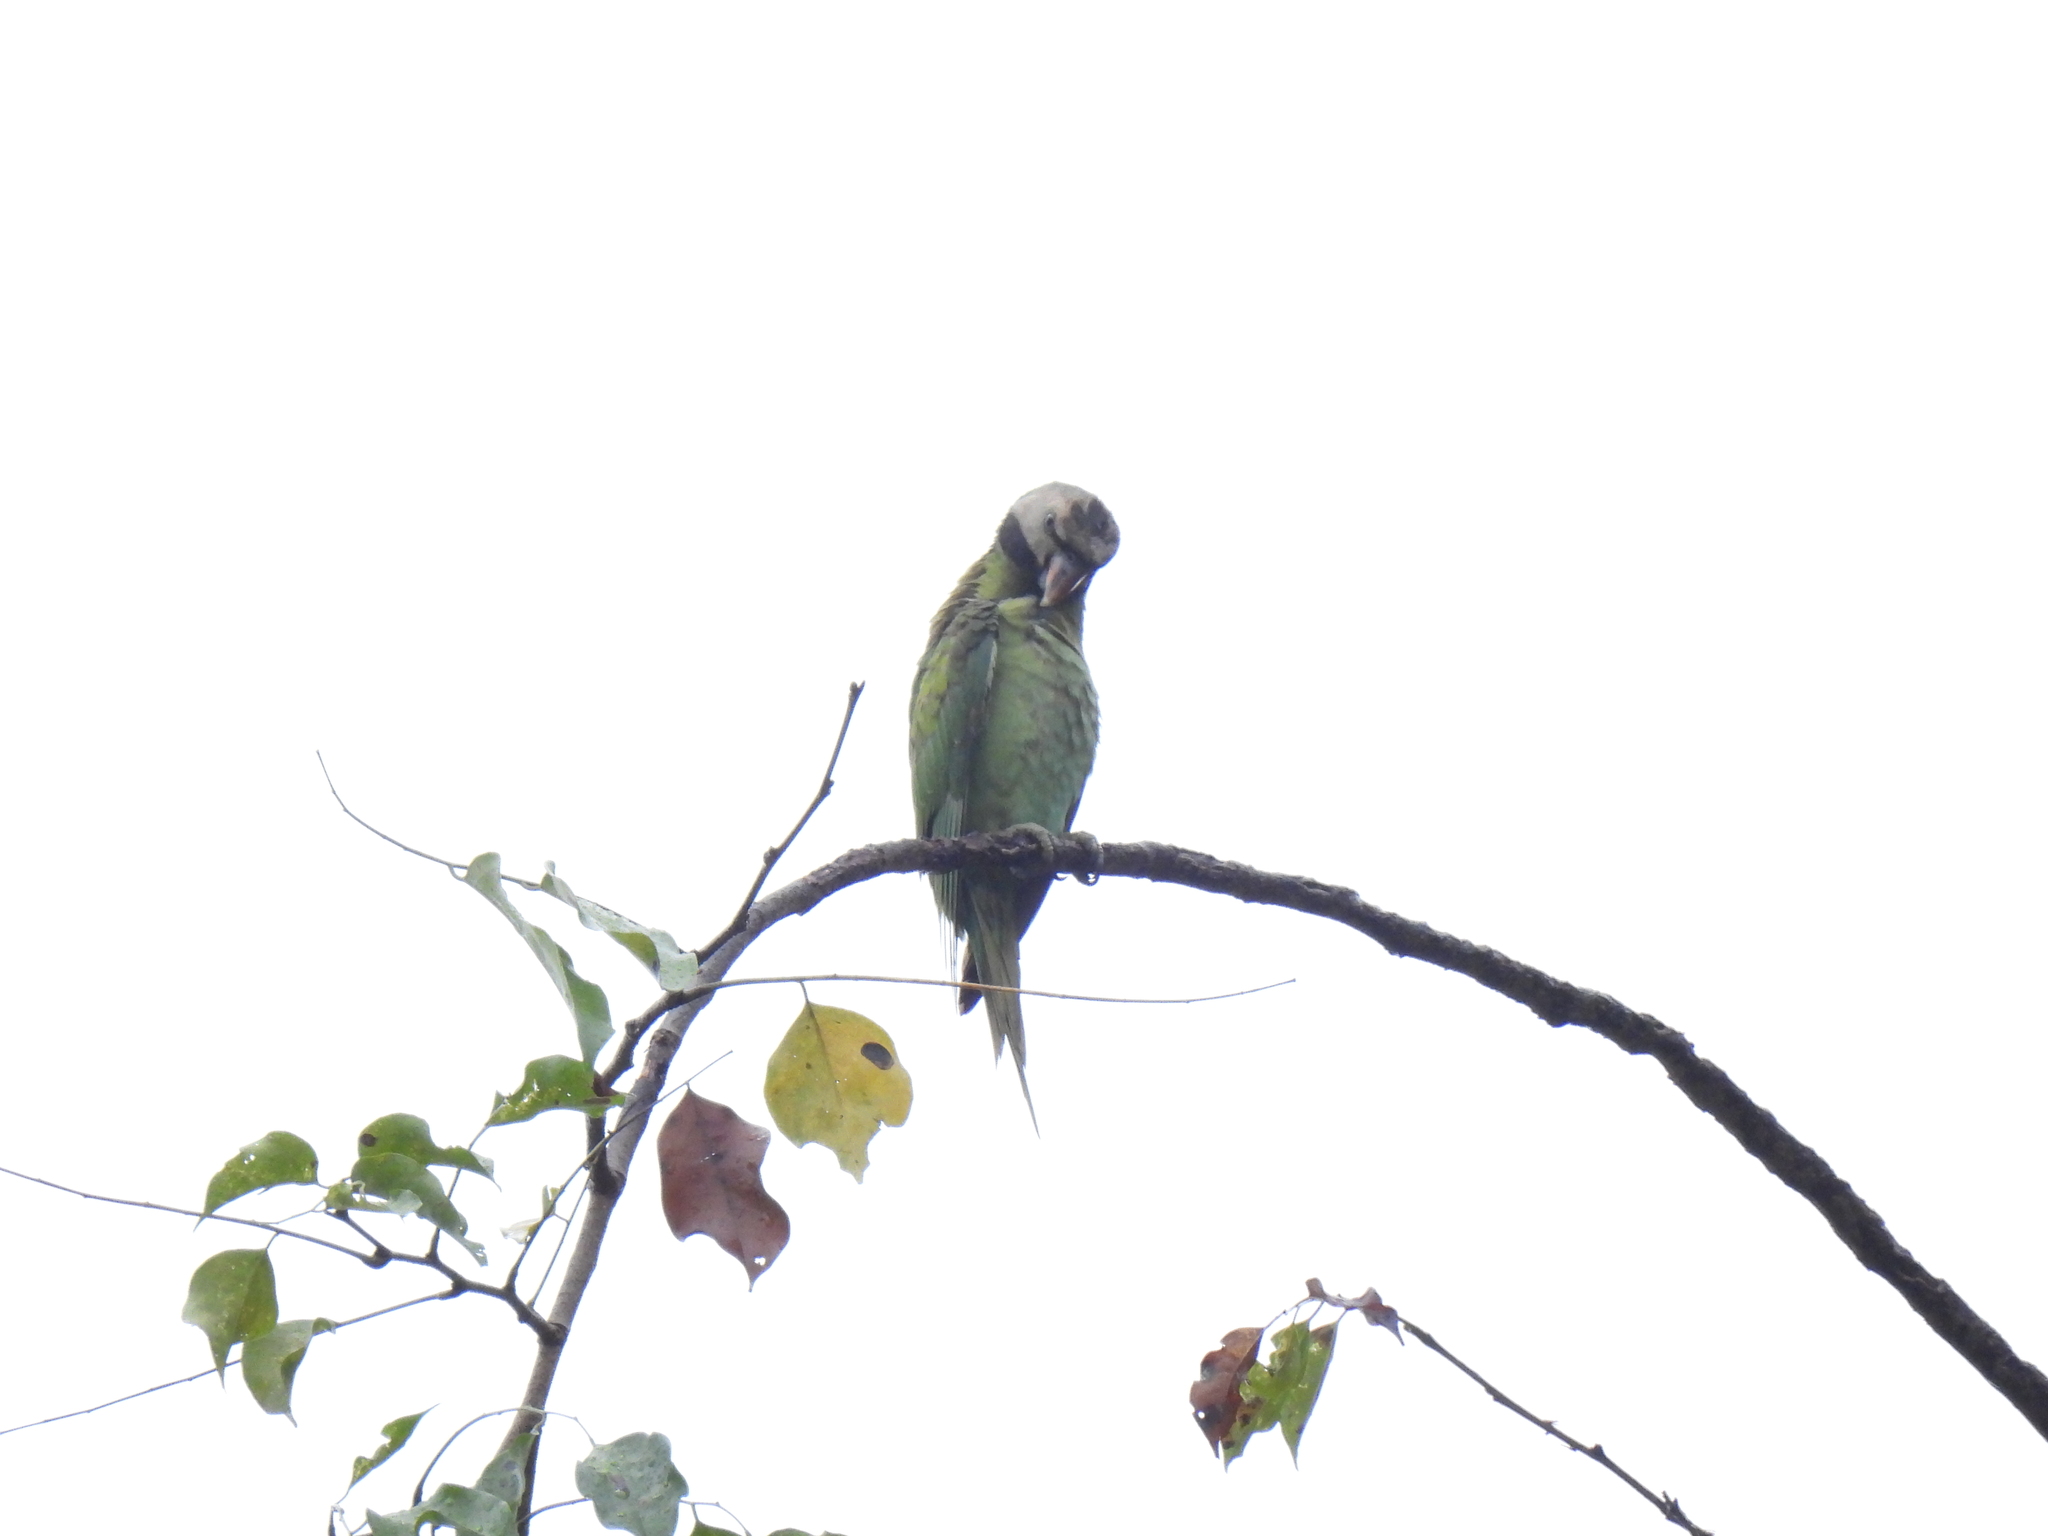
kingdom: Animalia
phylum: Chordata
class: Aves
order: Psittaciformes
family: Psittacidae
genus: Psittacula
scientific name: Psittacula alexandri
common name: Red-breasted parakeet
